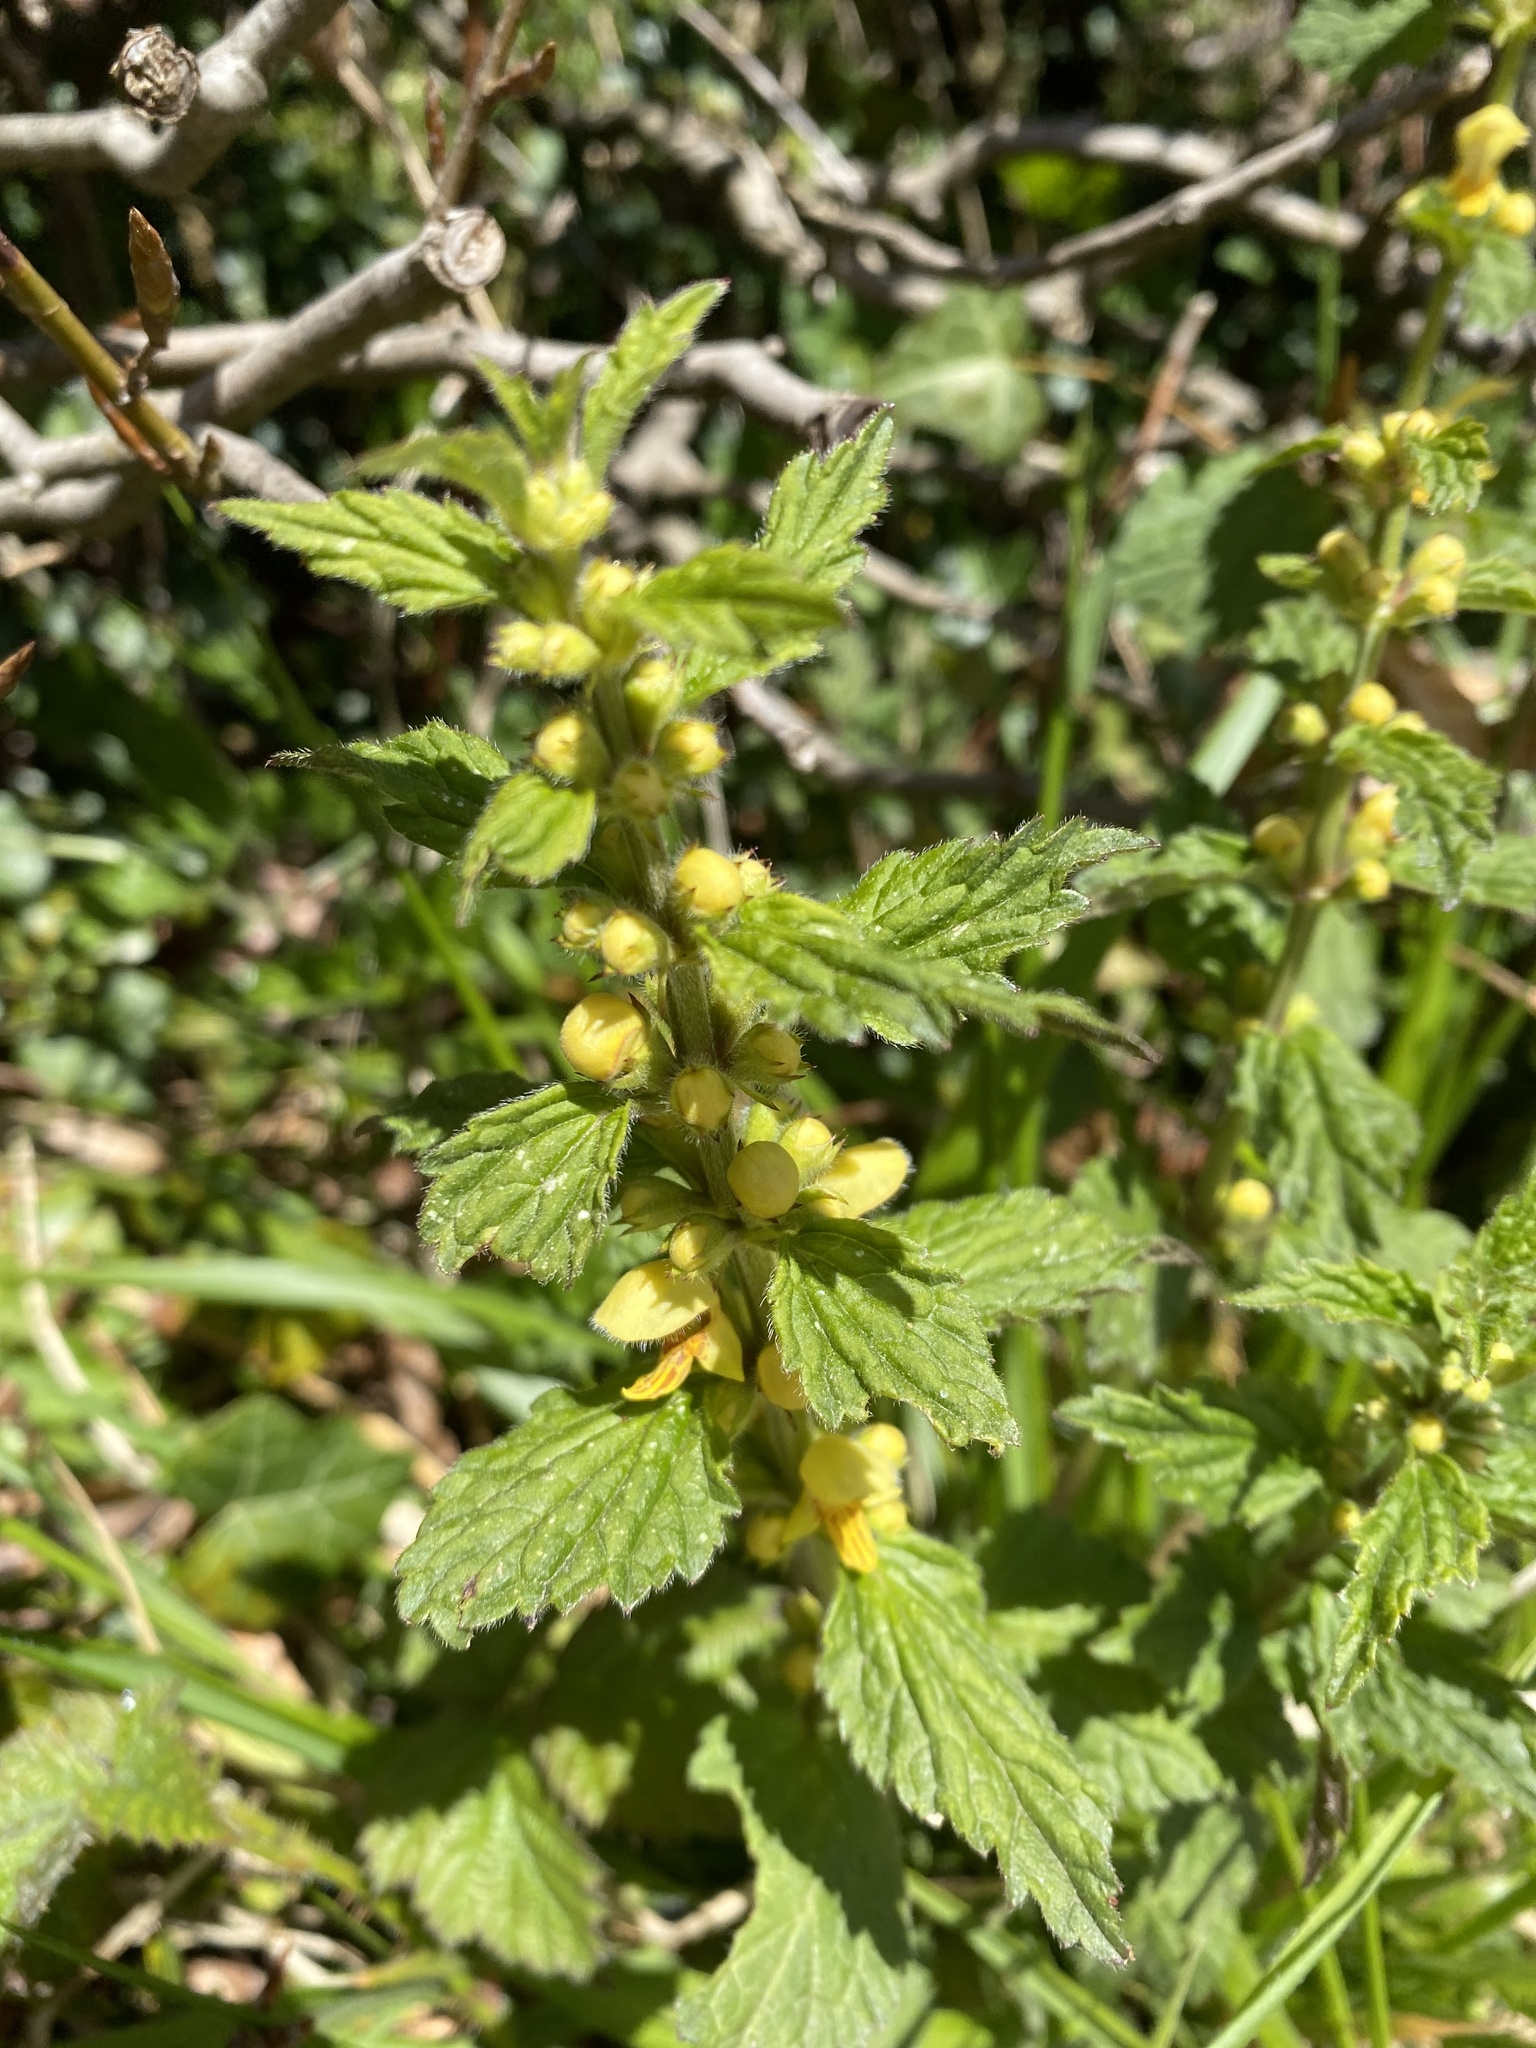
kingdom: Plantae
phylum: Tracheophyta
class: Magnoliopsida
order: Lamiales
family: Lamiaceae
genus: Lamium
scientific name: Lamium galeobdolon
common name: Yellow archangel
